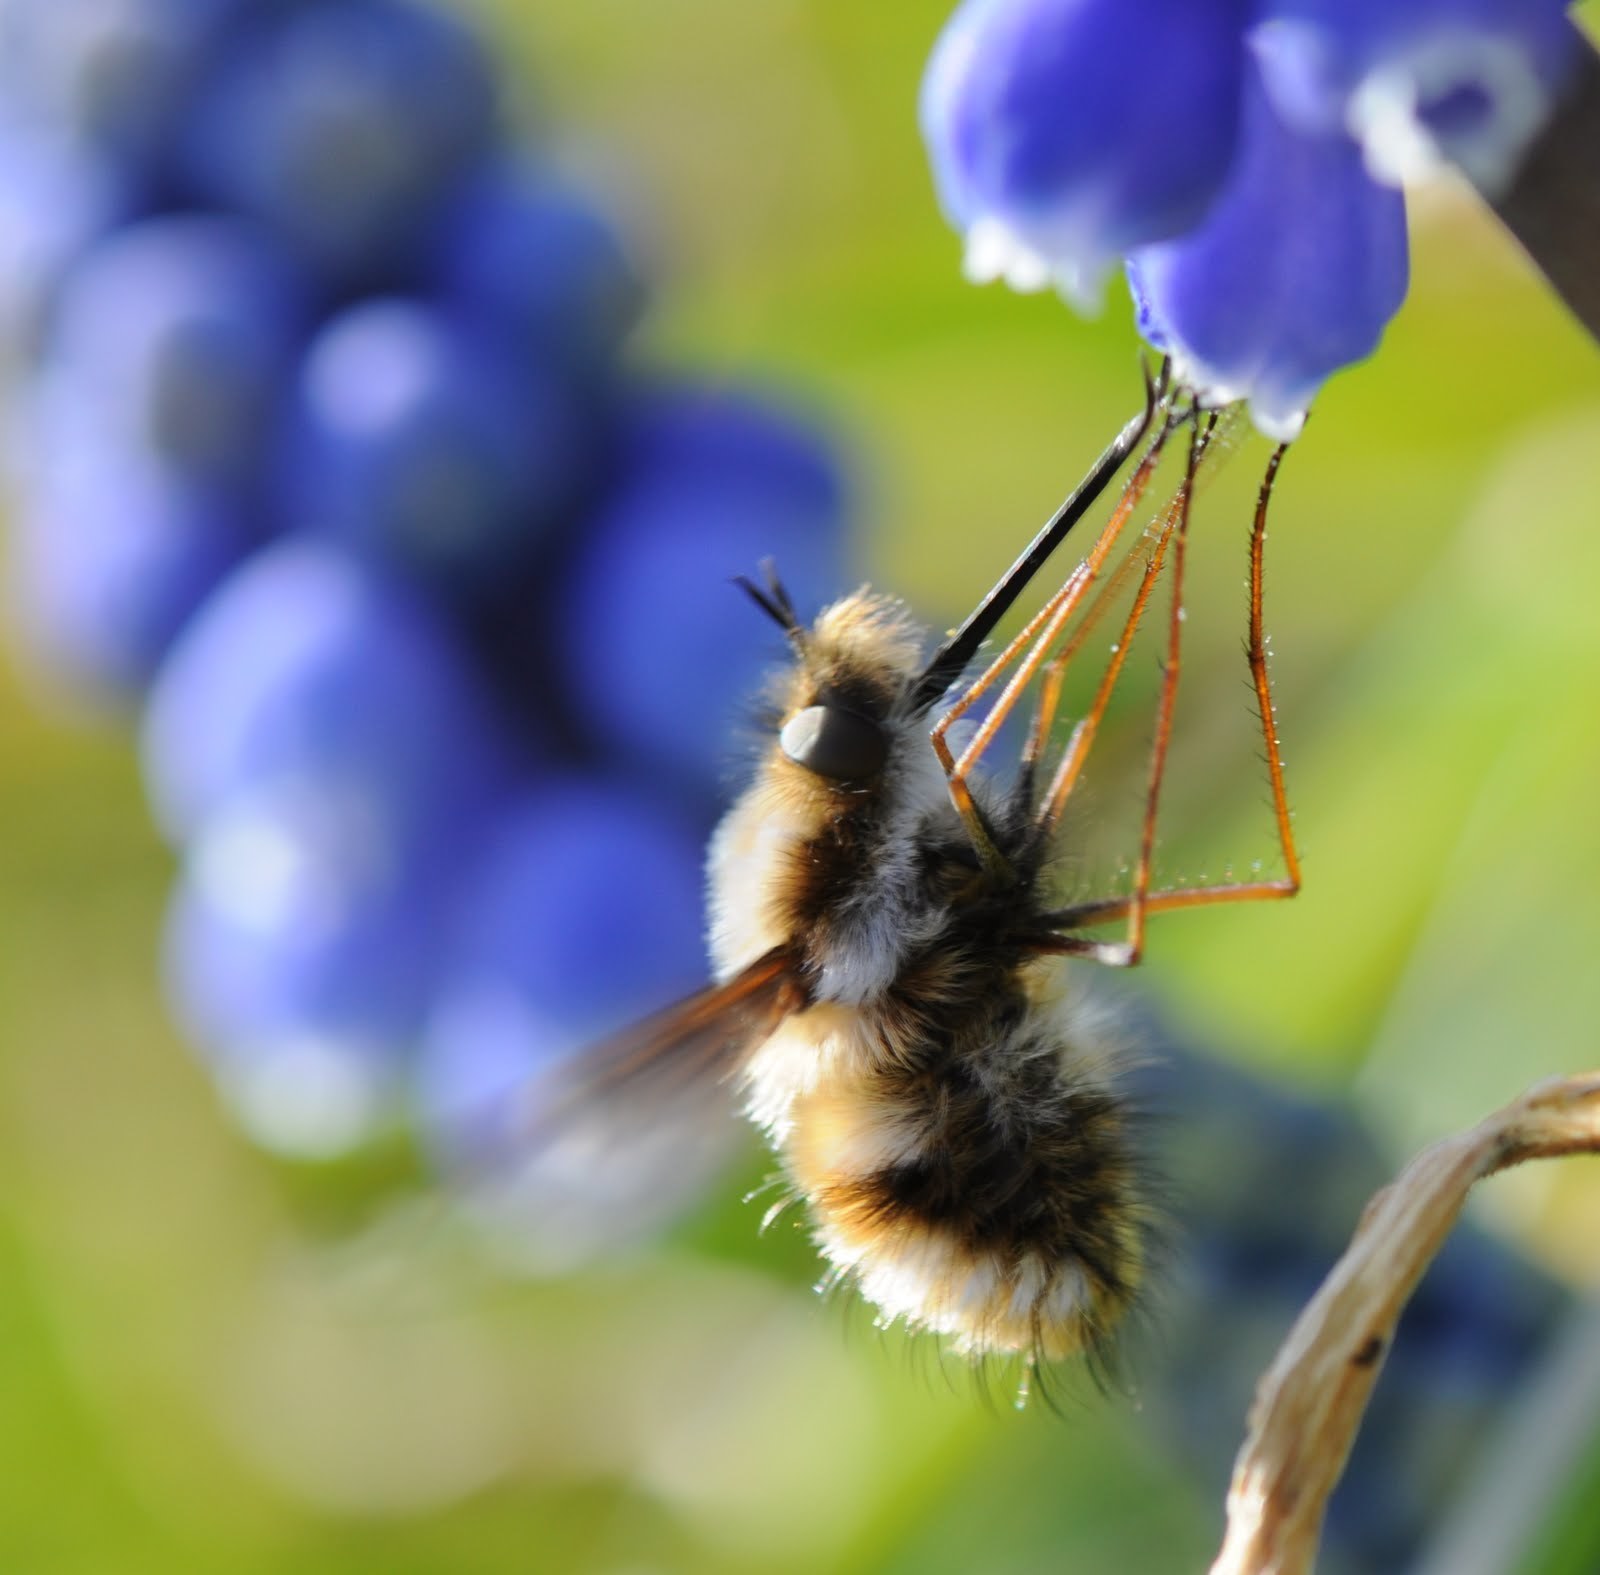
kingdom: Animalia
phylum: Arthropoda
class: Insecta
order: Diptera
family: Bombyliidae
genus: Bombylius
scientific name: Bombylius major
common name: Bee fly
